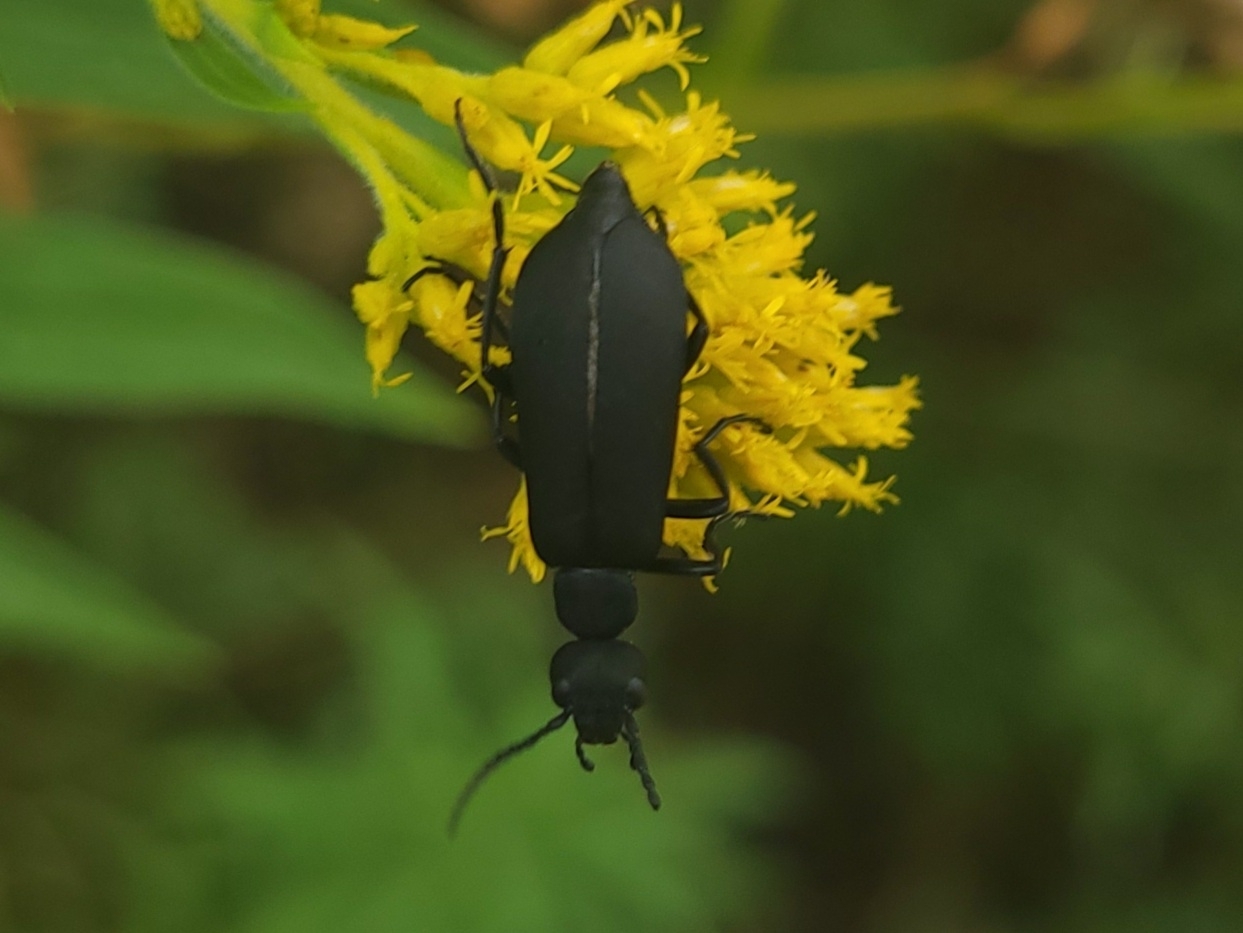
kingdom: Animalia
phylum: Arthropoda
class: Insecta
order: Coleoptera
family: Meloidae
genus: Epicauta
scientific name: Epicauta pensylvanica
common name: Black blister beetle
